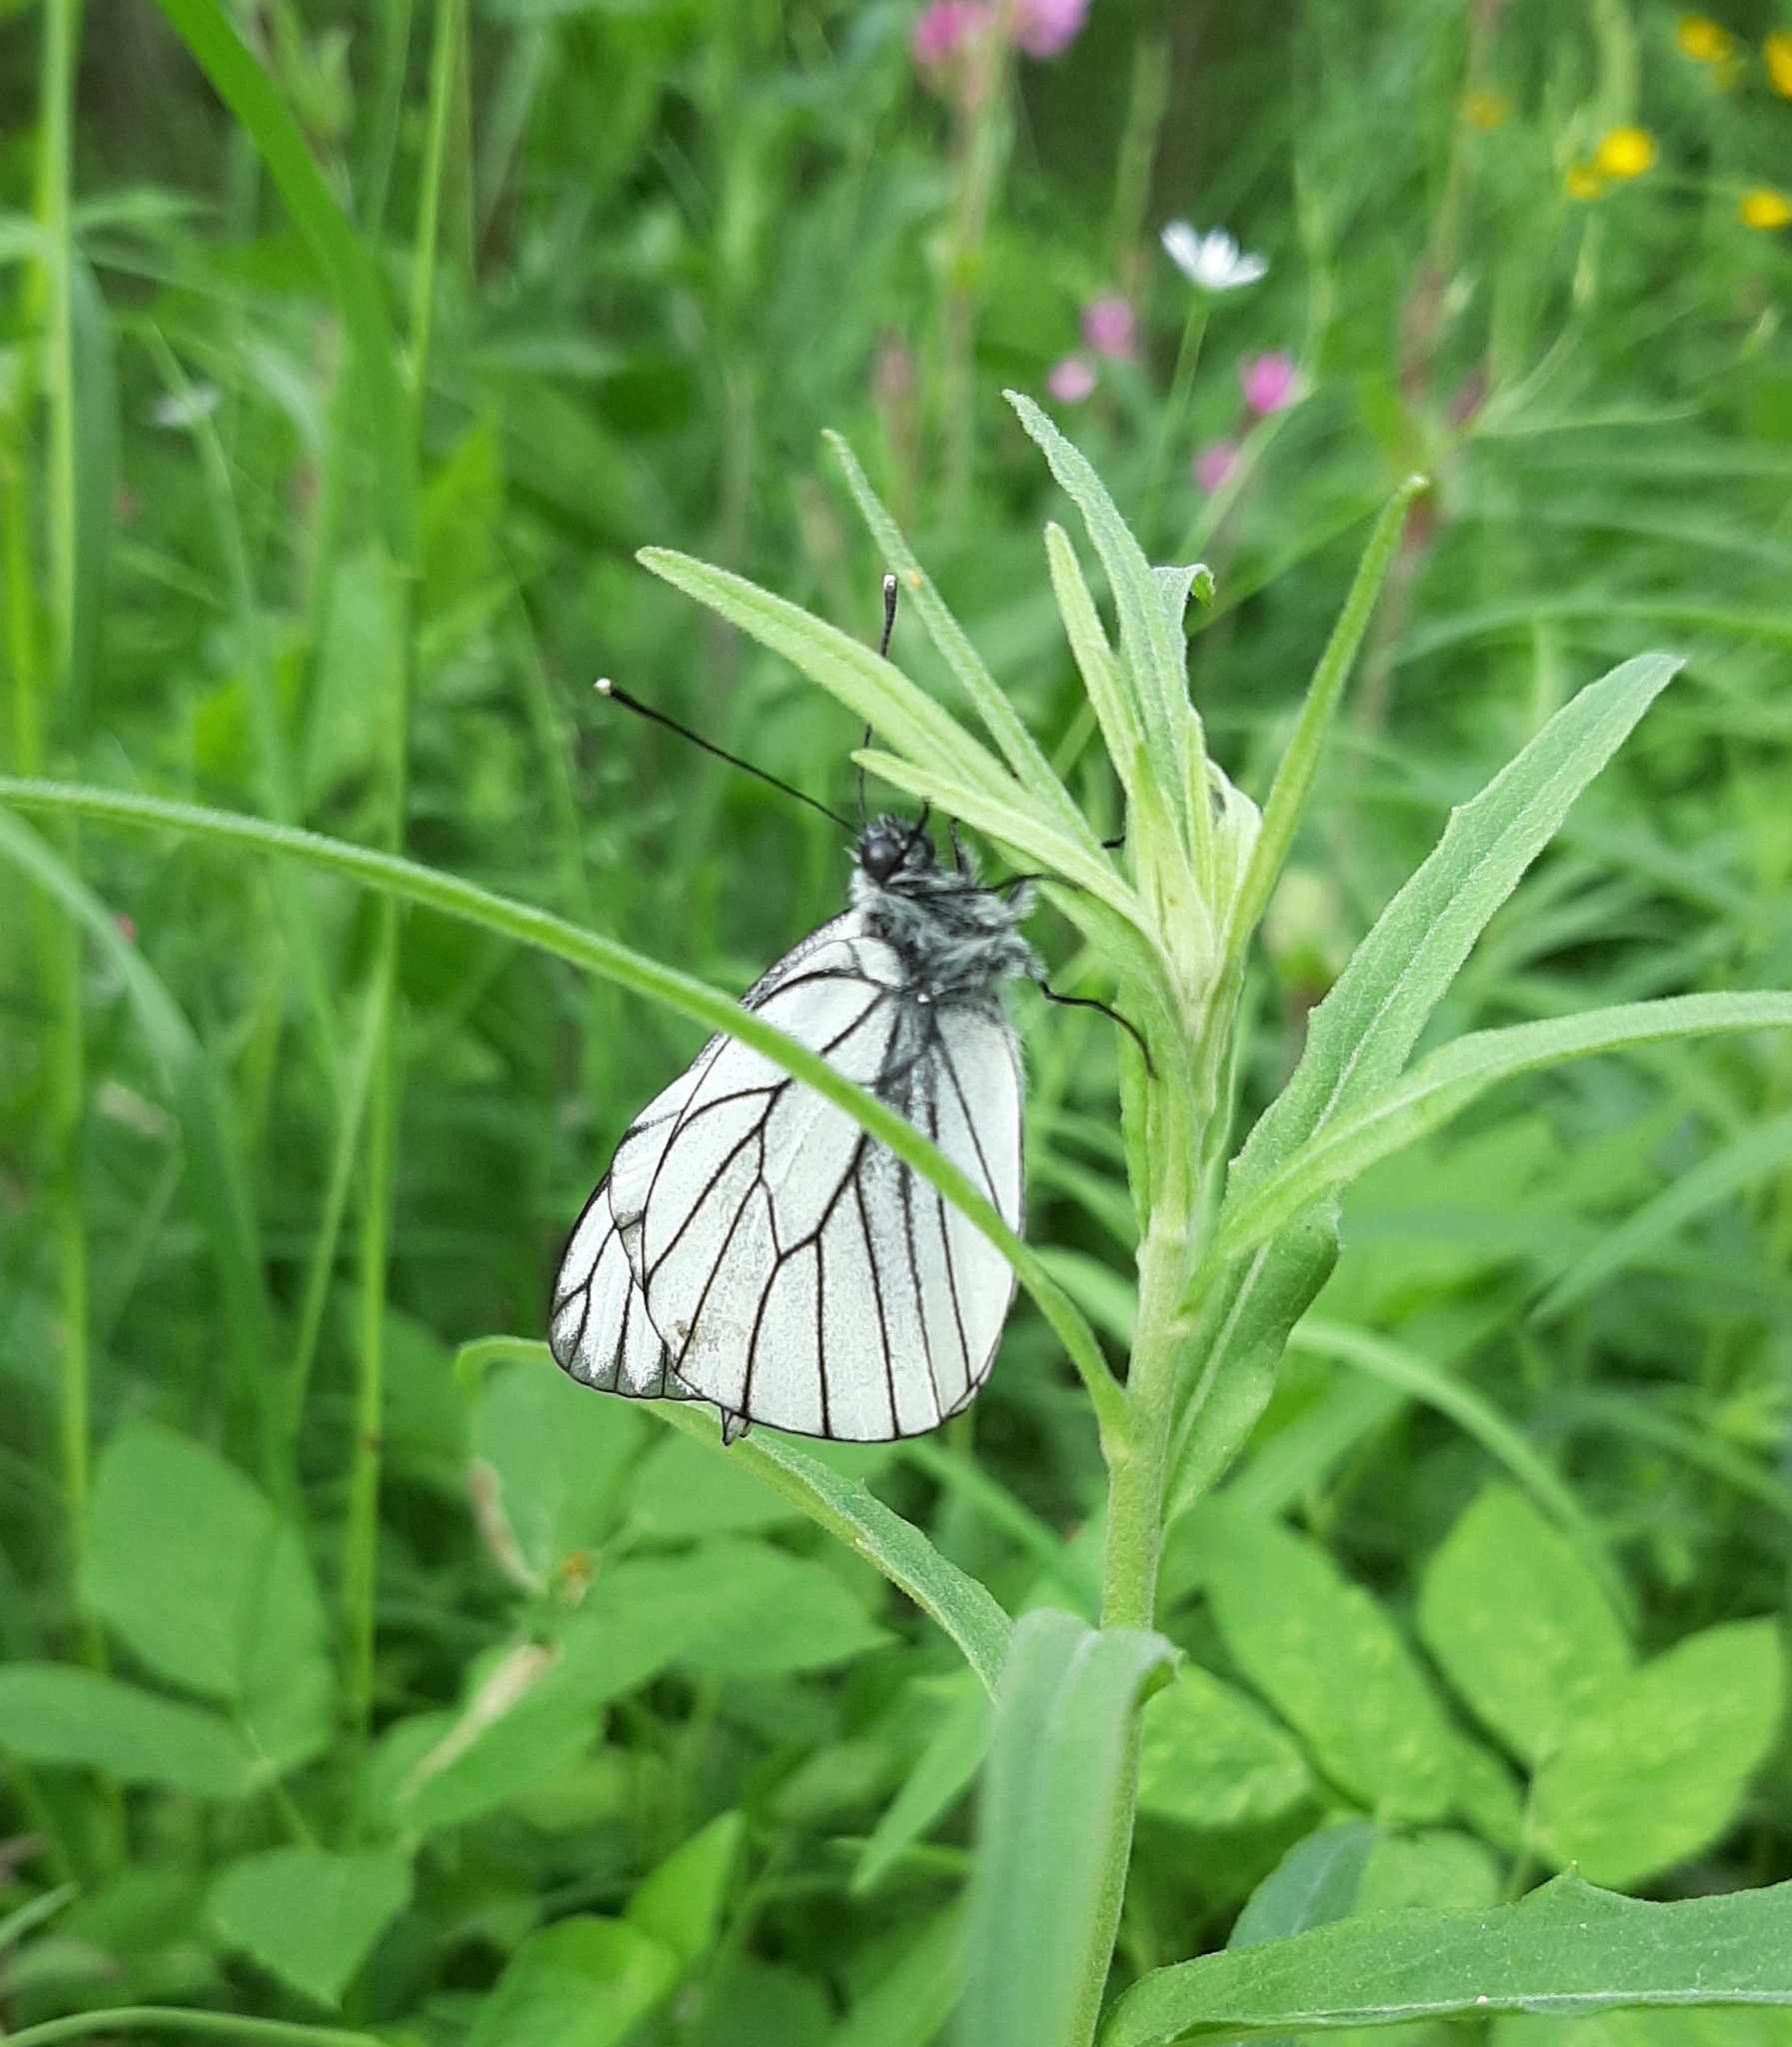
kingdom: Animalia
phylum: Arthropoda
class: Insecta
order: Lepidoptera
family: Pieridae
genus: Aporia
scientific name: Aporia crataegi
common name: Black-veined white
